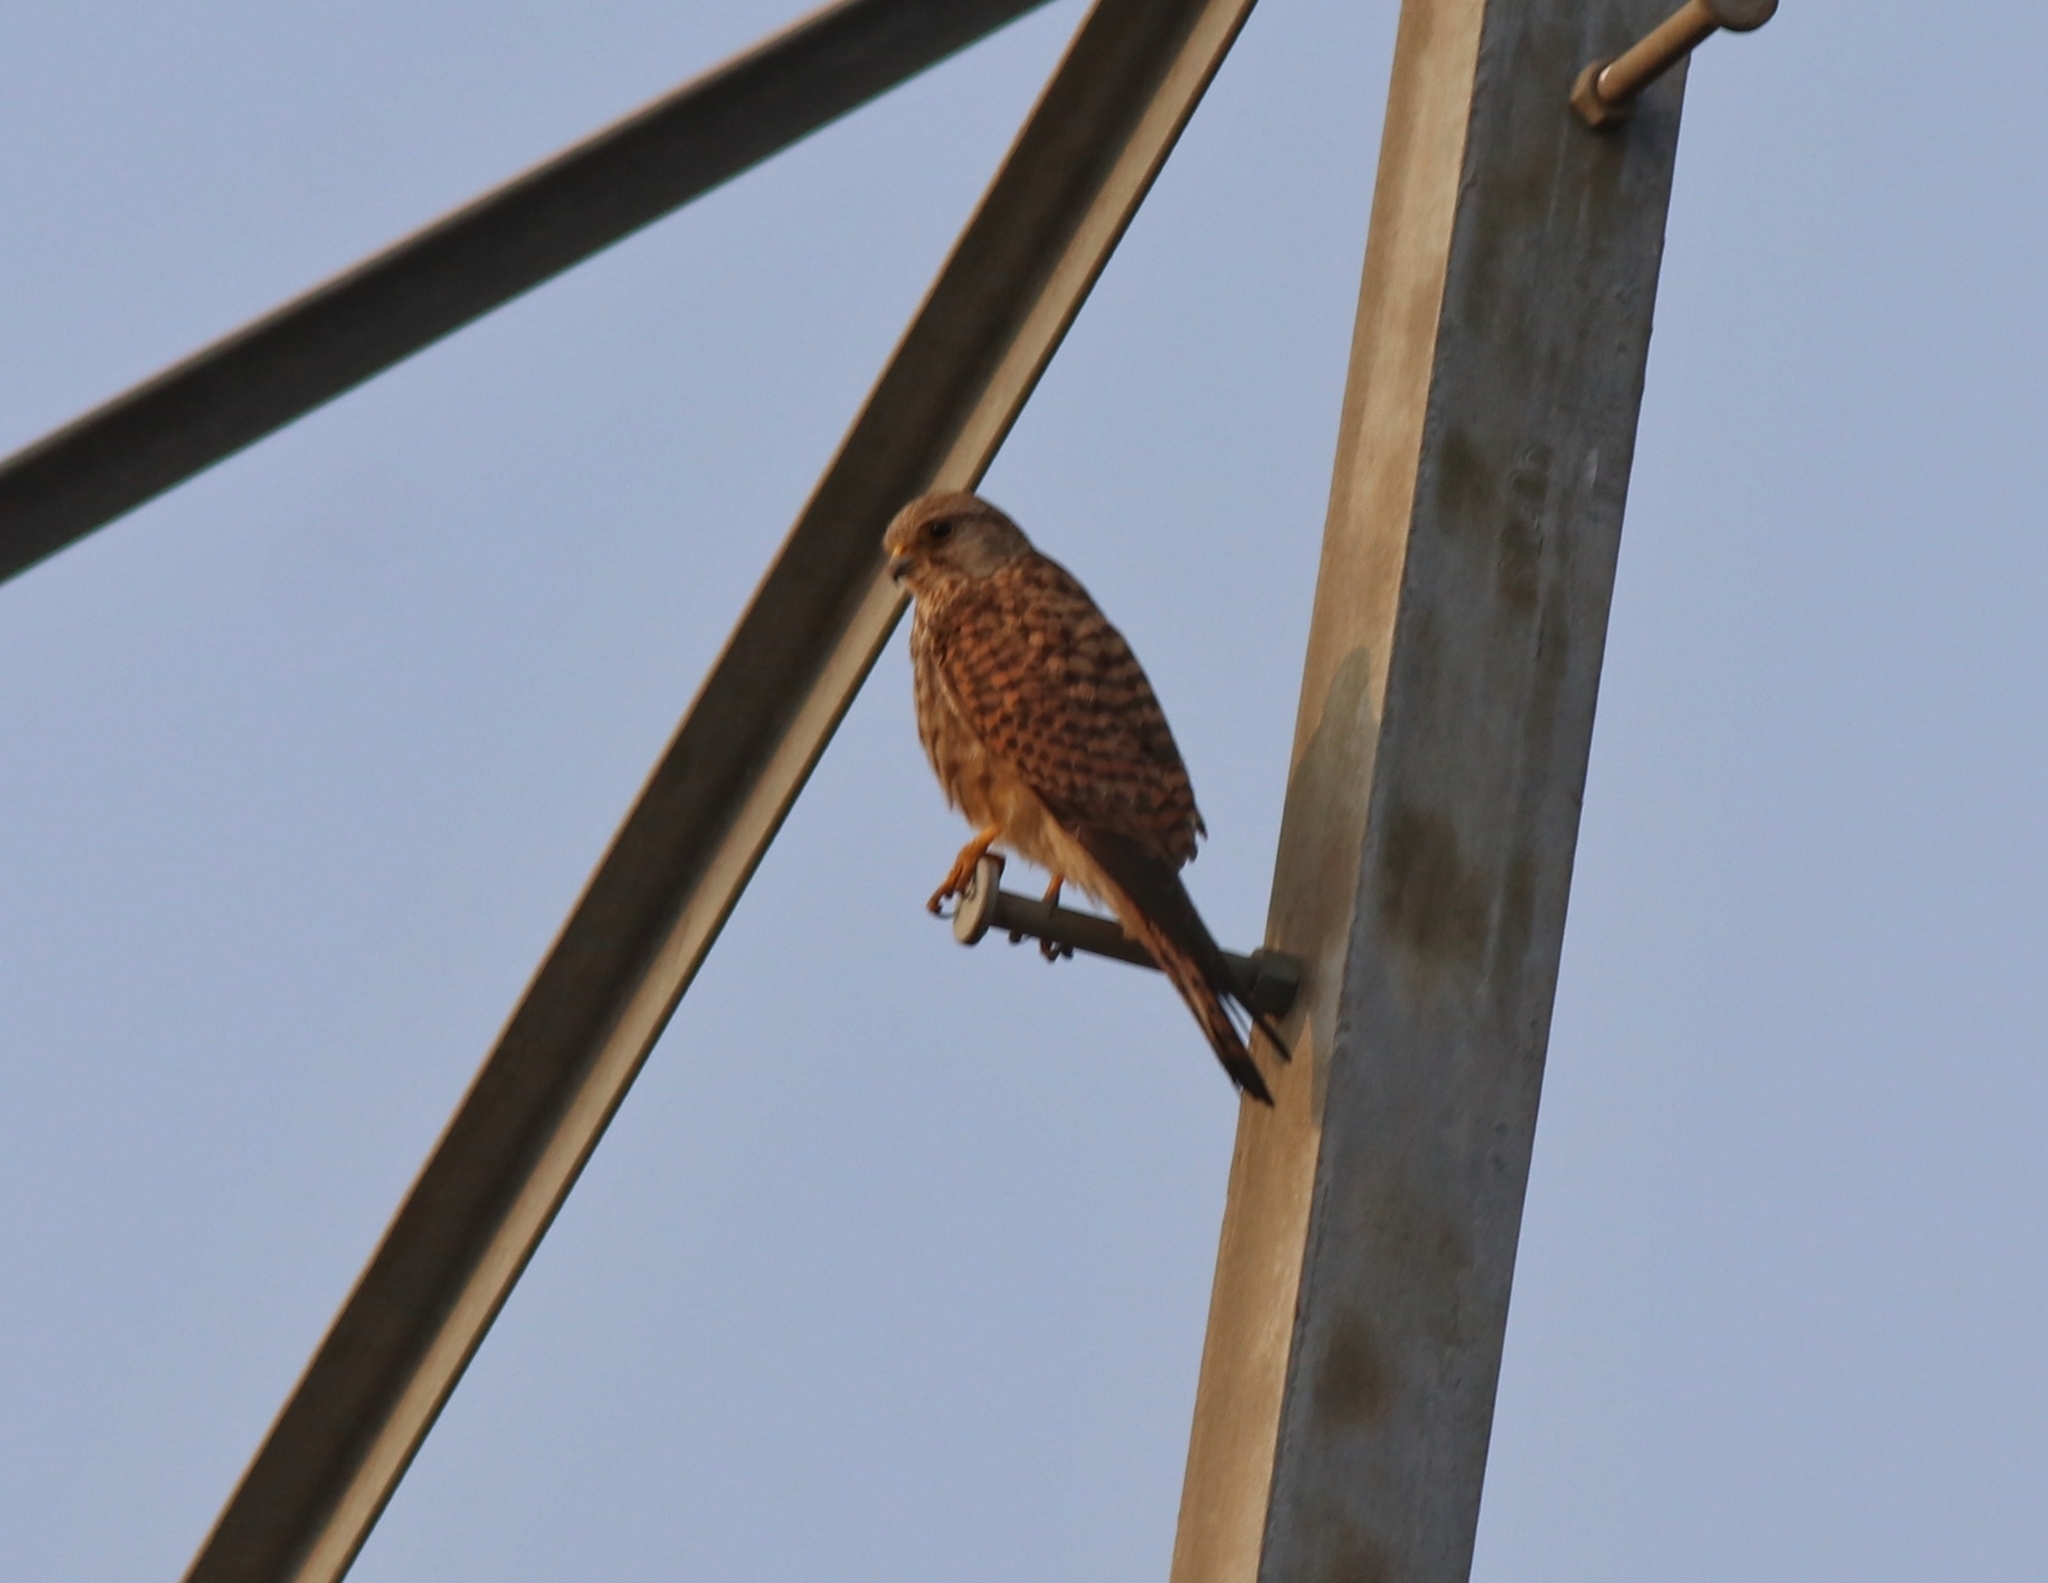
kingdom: Animalia
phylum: Chordata
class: Aves
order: Falconiformes
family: Falconidae
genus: Falco
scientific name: Falco tinnunculus
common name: Common kestrel
